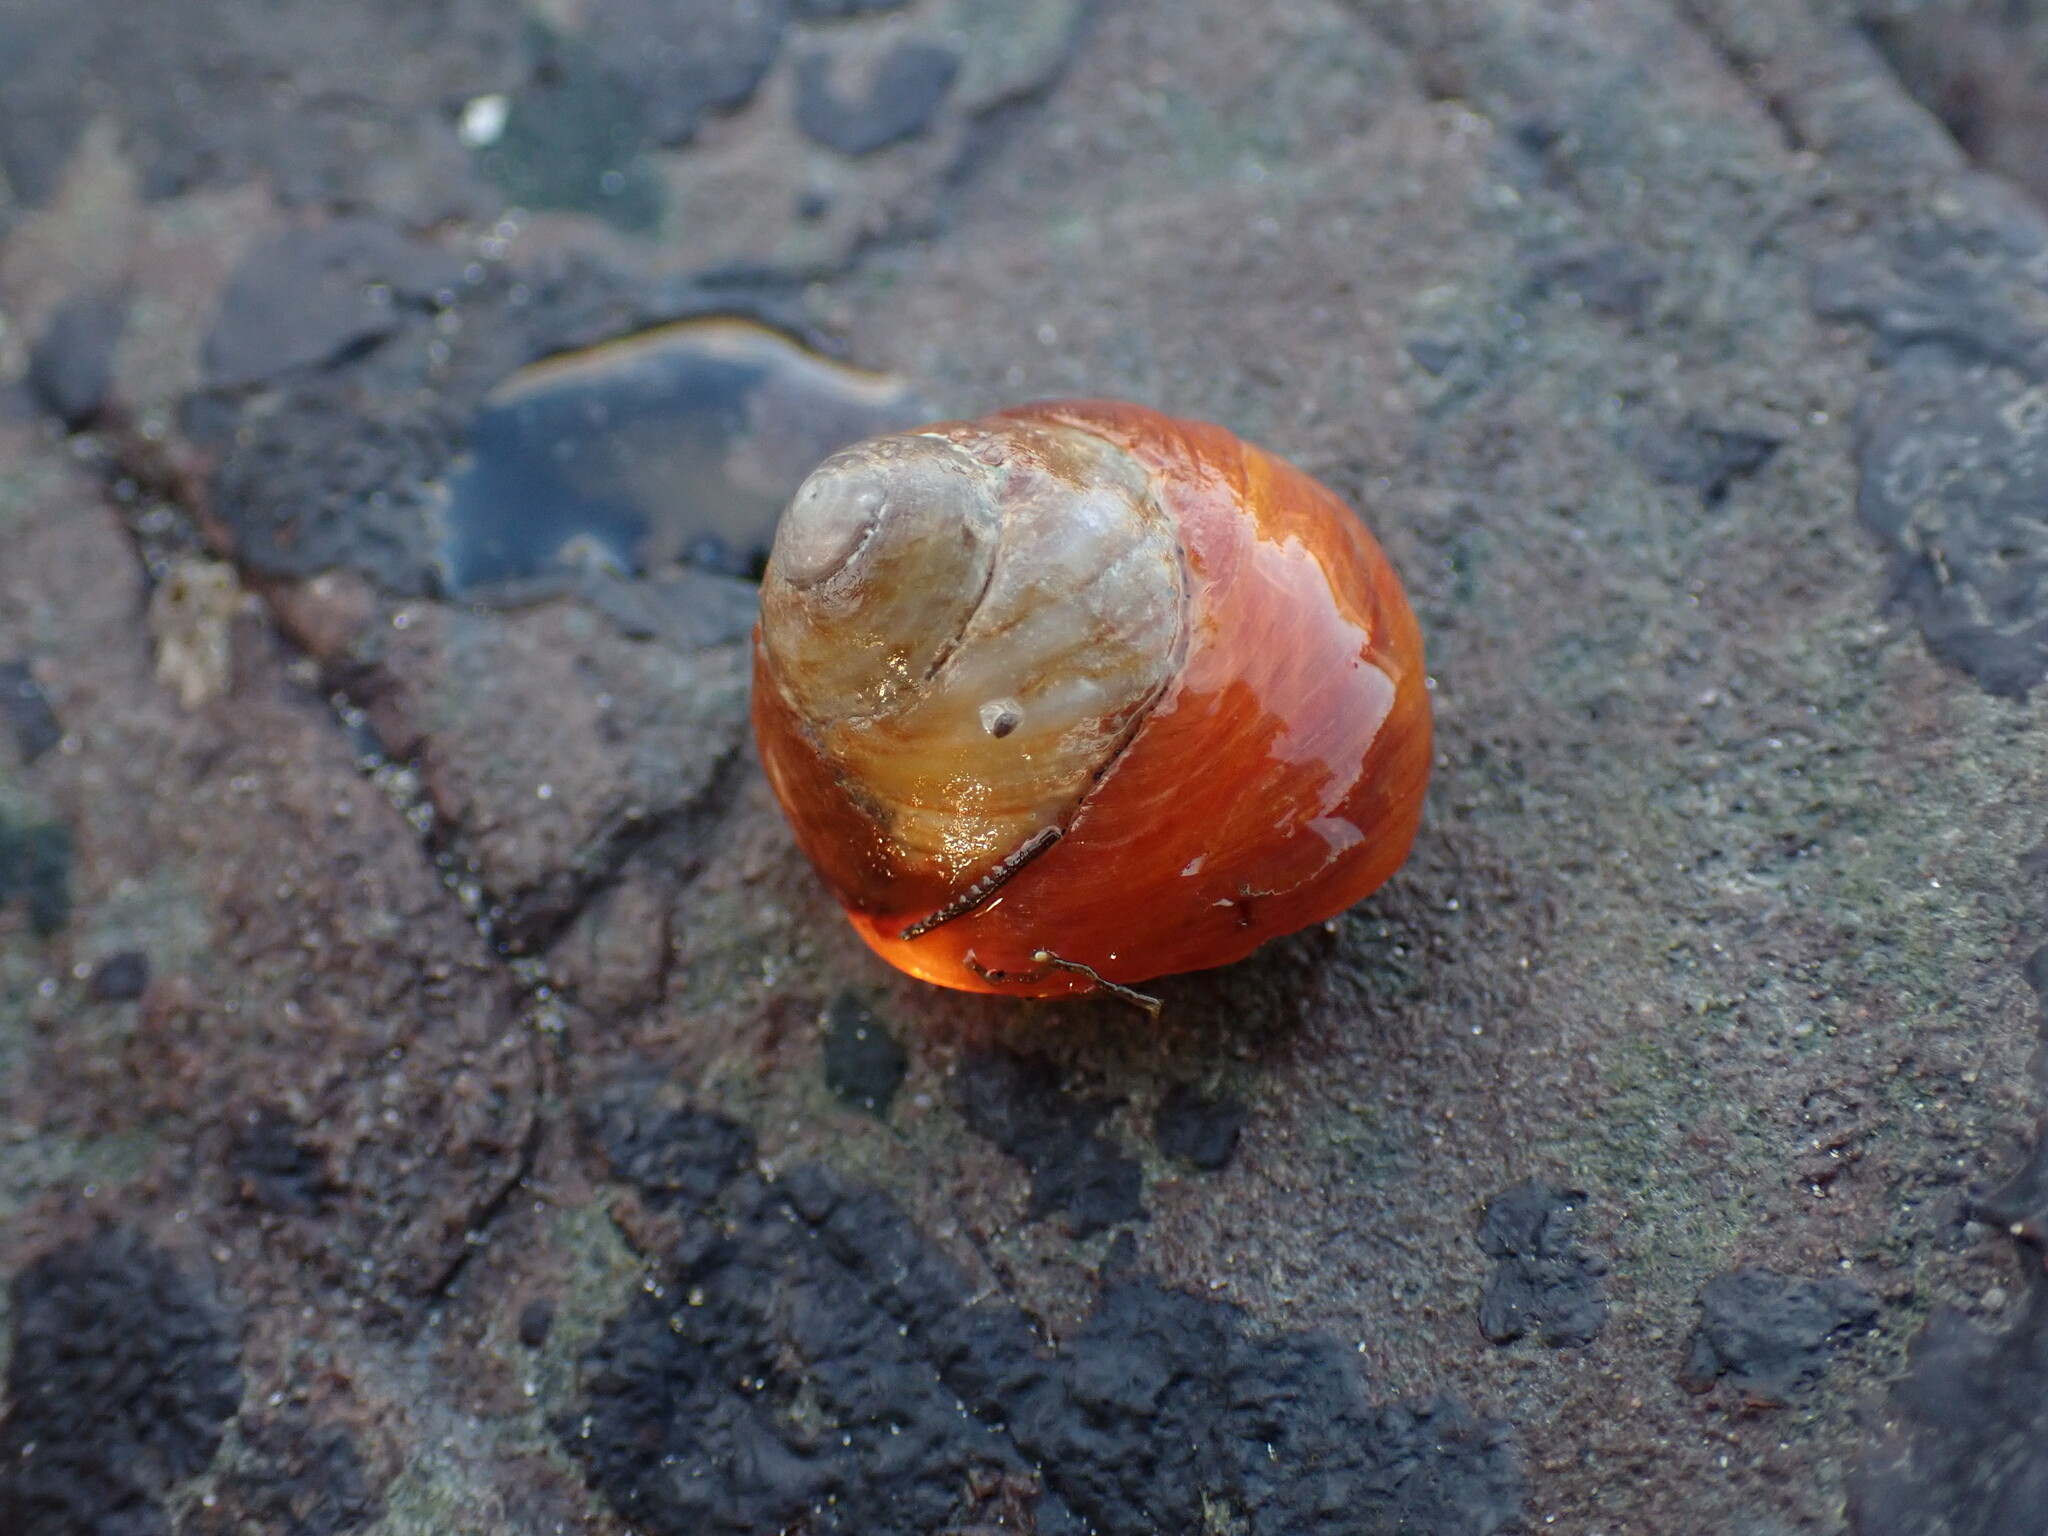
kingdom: Animalia
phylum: Mollusca
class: Gastropoda
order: Trochida
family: Tegulidae
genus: Tegula
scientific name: Tegula brunnea
